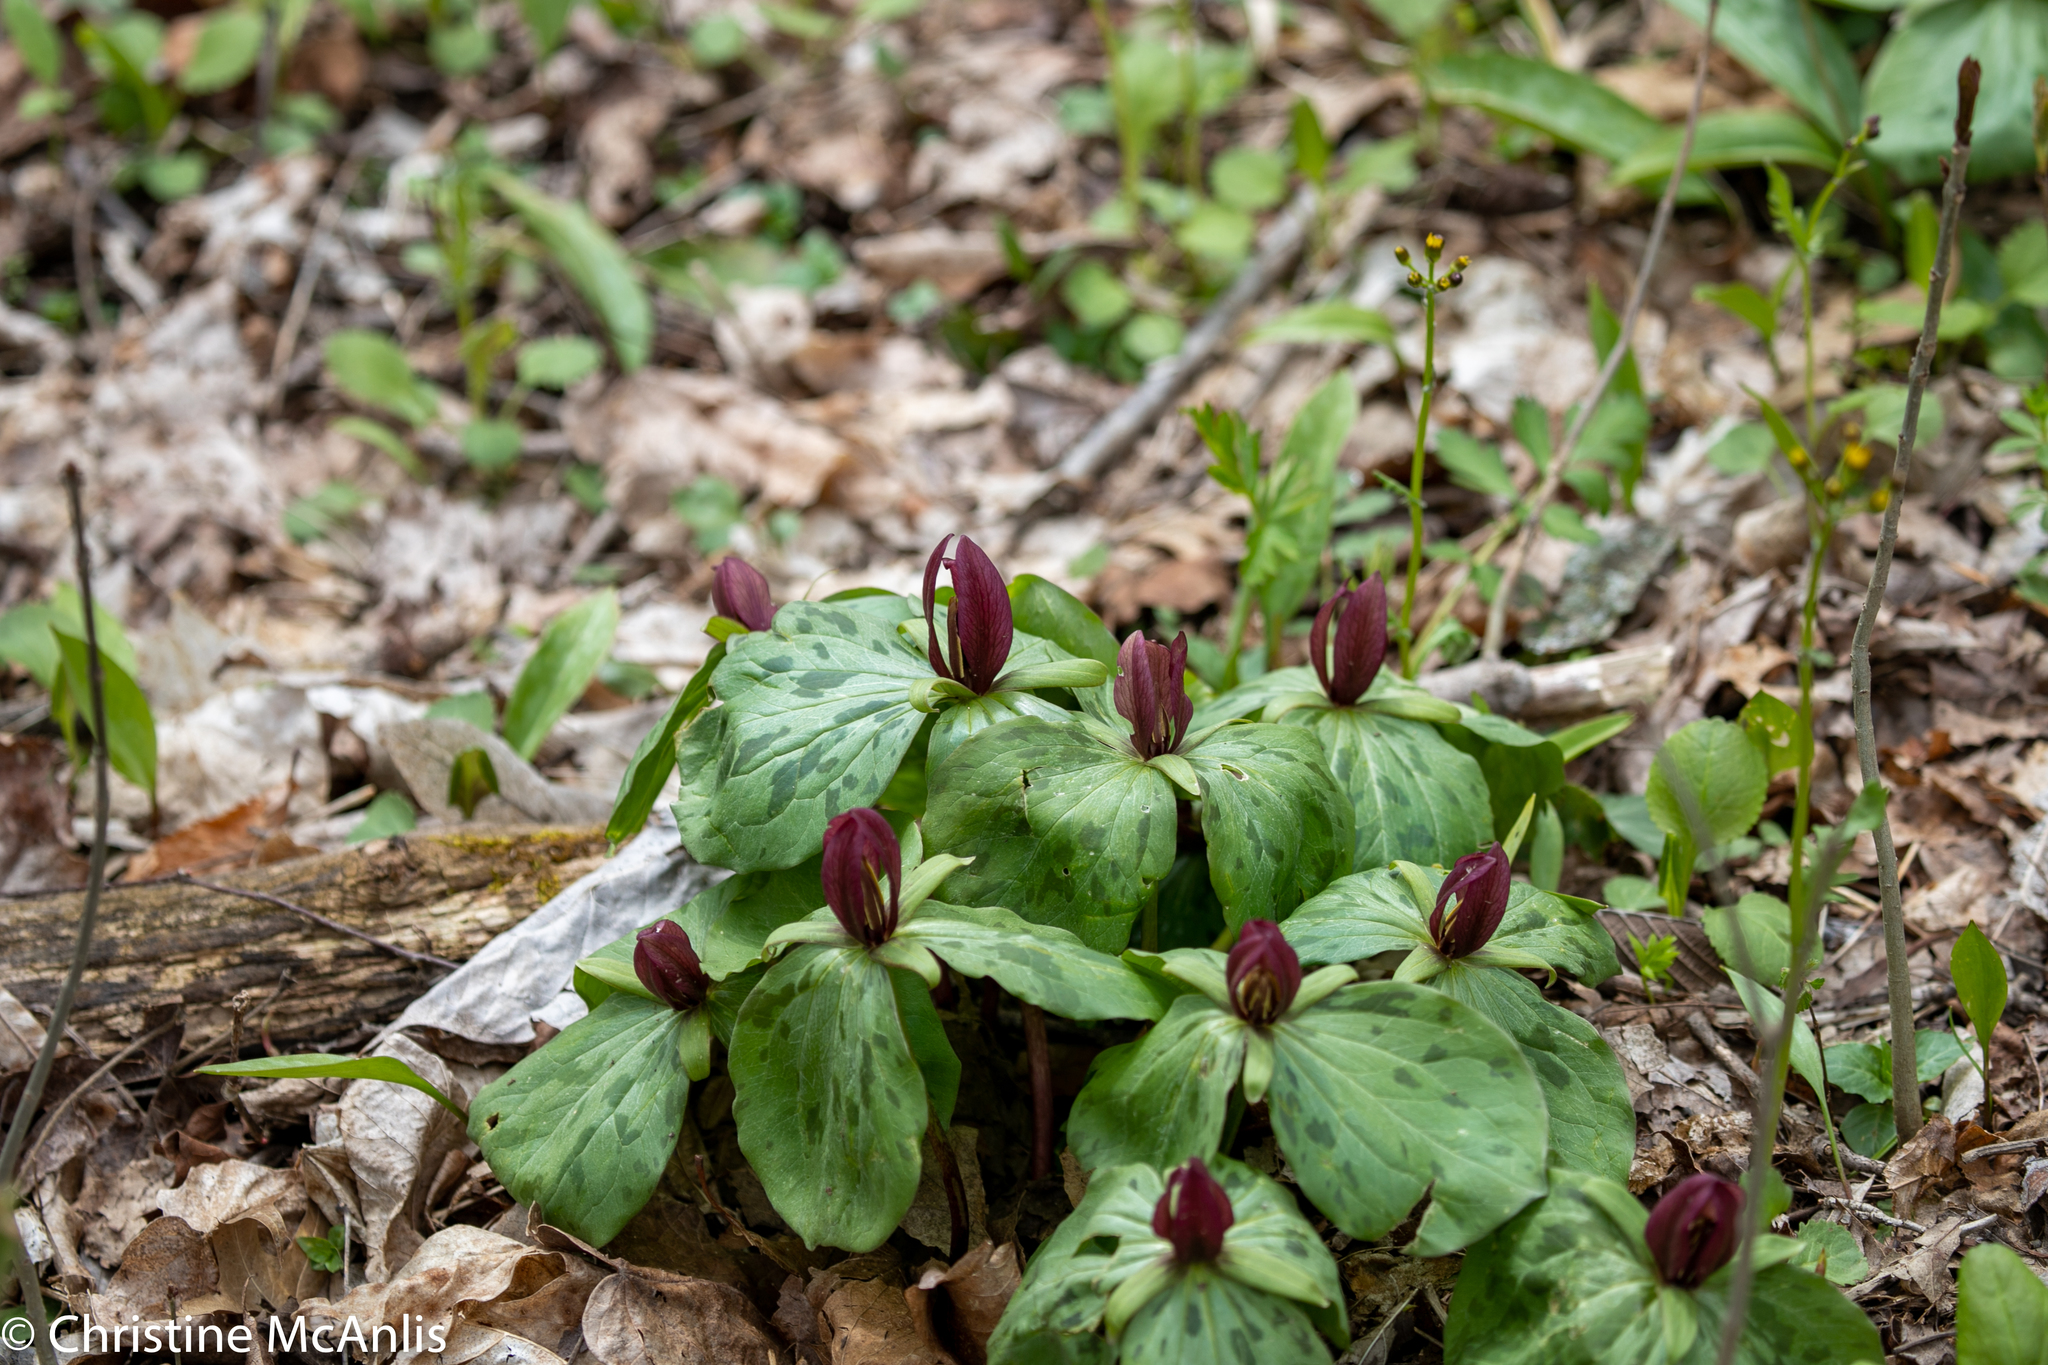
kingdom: Plantae
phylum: Tracheophyta
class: Liliopsida
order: Liliales
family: Melanthiaceae
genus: Trillium
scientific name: Trillium sessile
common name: Sessile trillium
